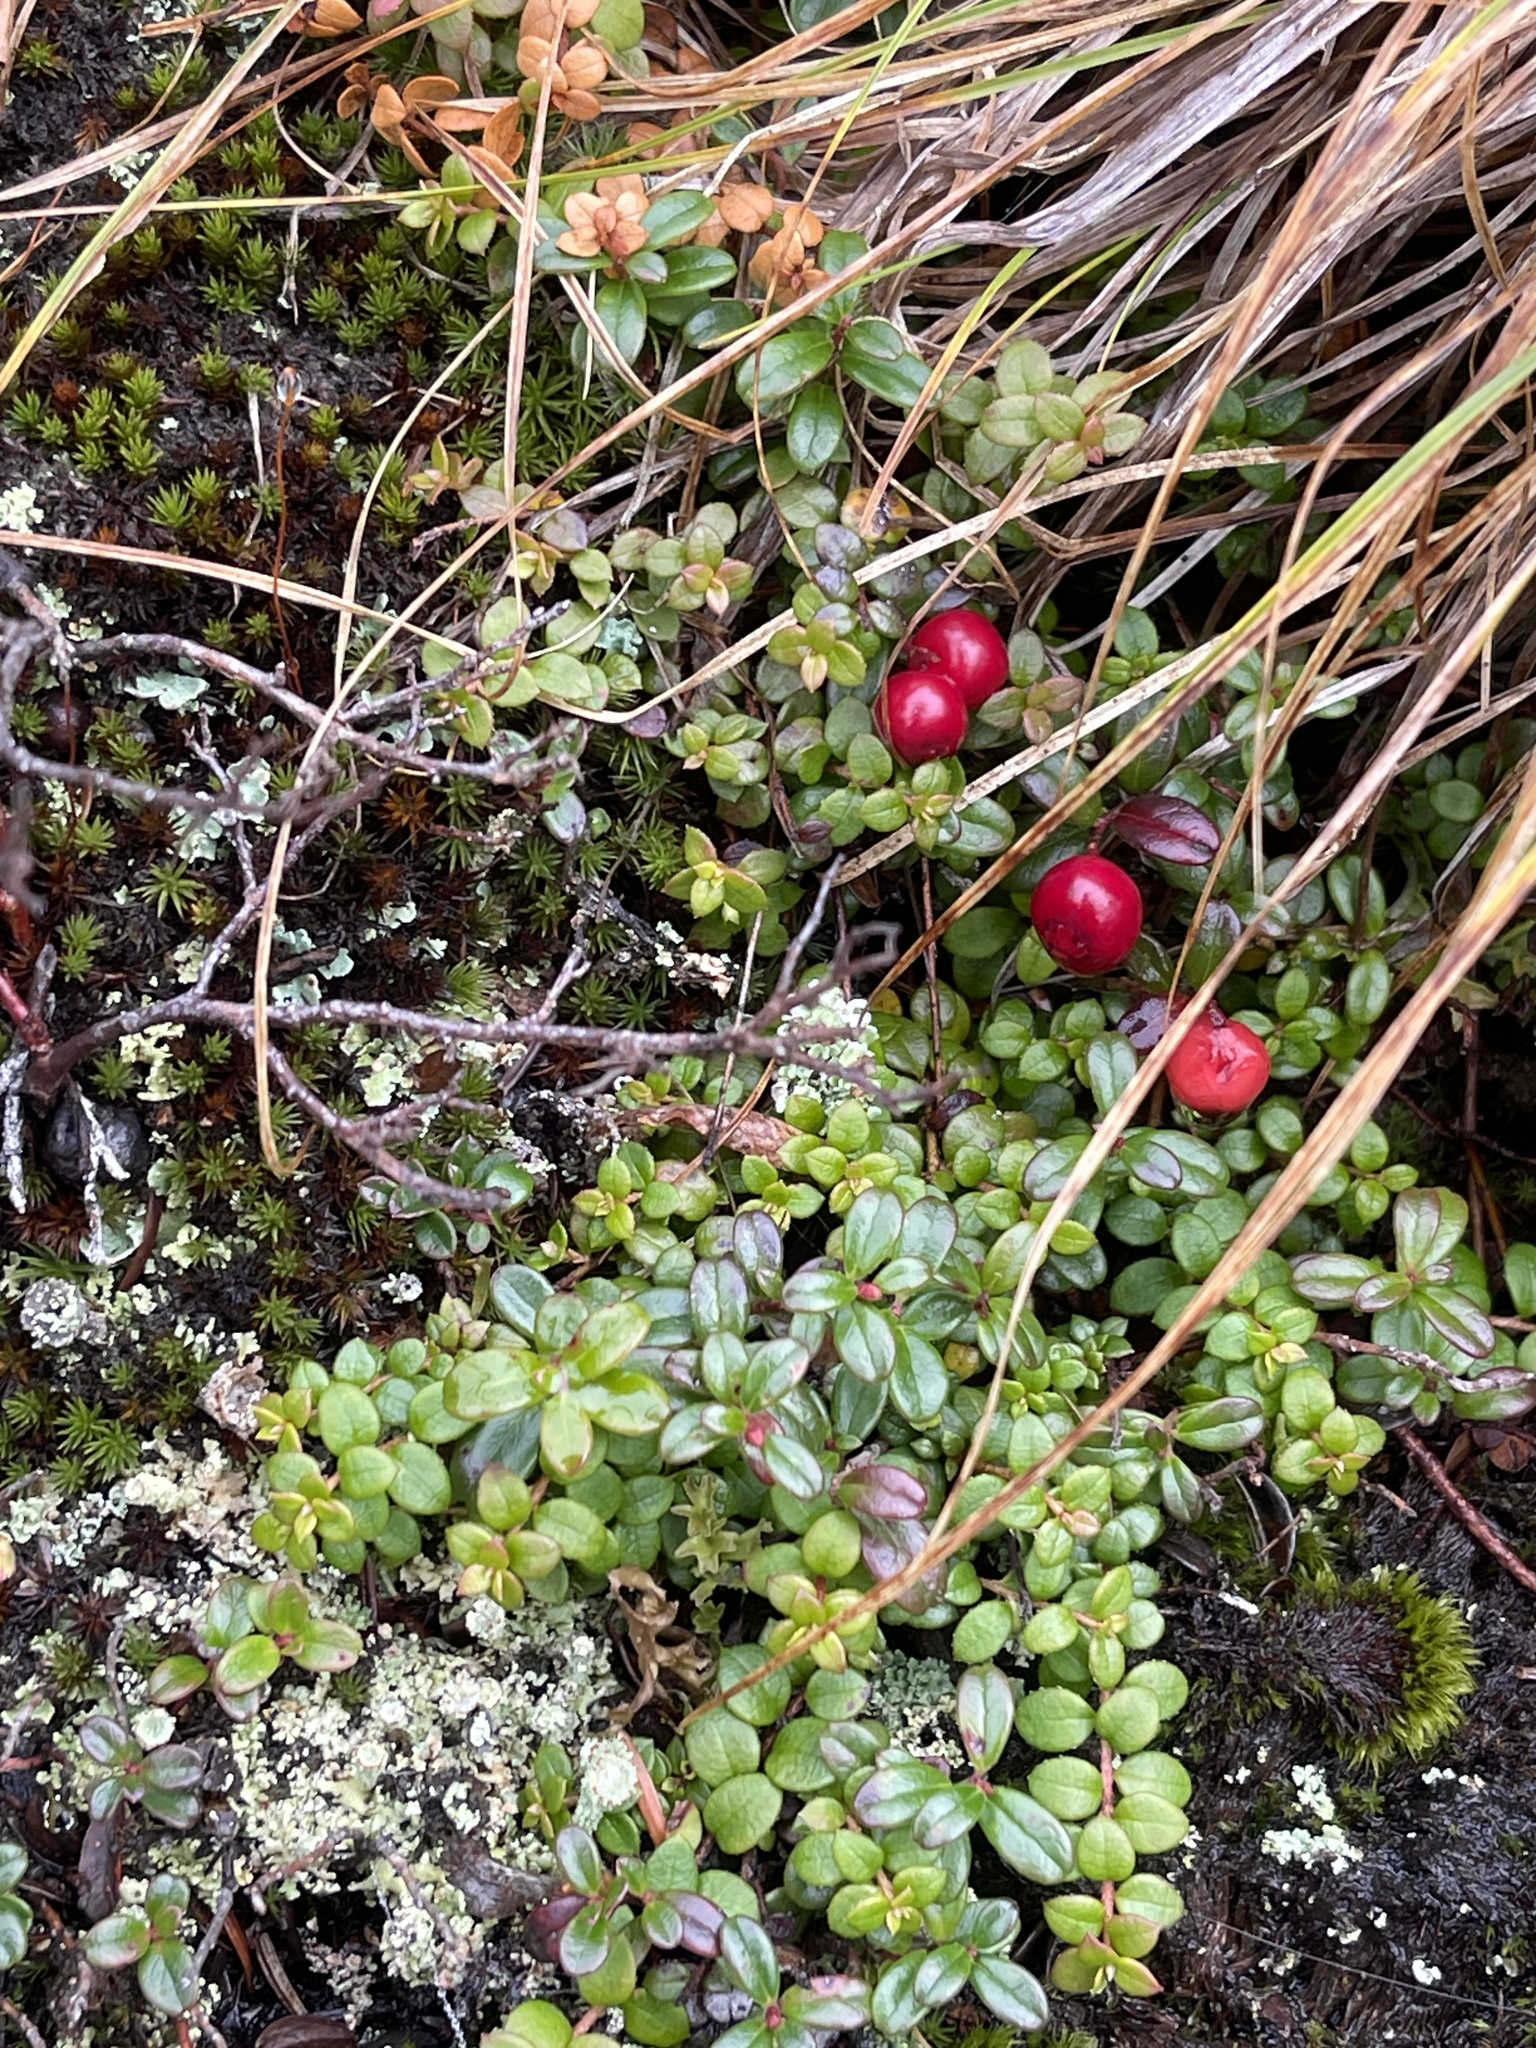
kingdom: Plantae
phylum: Tracheophyta
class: Magnoliopsida
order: Ericales
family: Ericaceae
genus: Vaccinium
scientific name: Vaccinium vitis-idaea
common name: Cowberry
